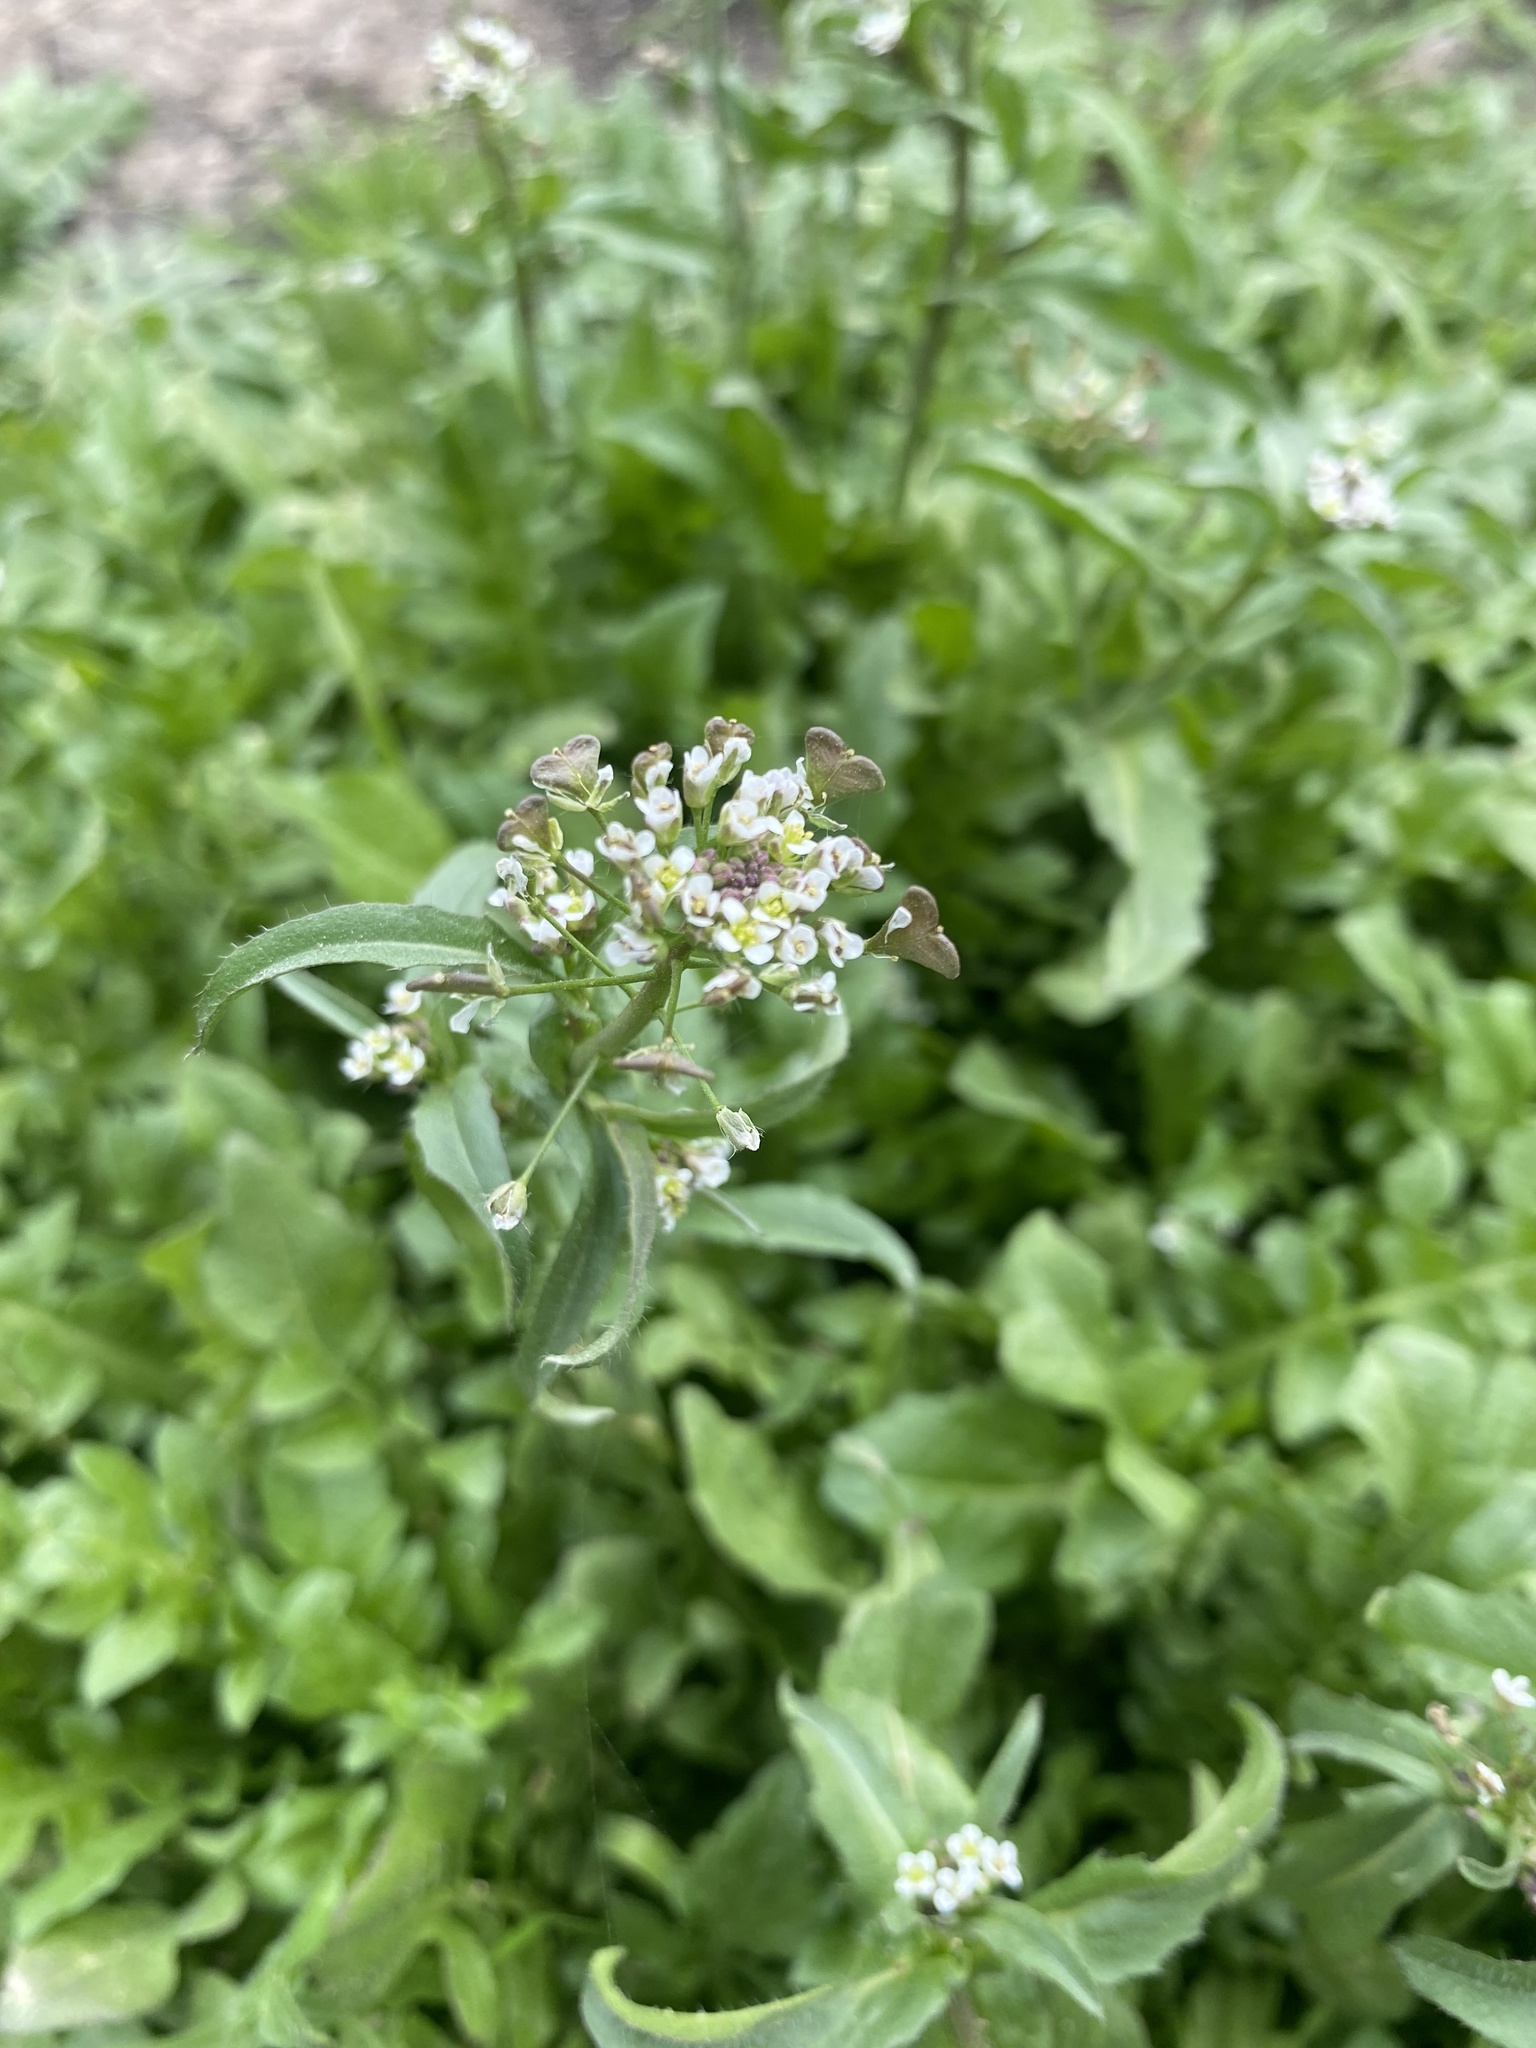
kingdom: Plantae
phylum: Tracheophyta
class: Magnoliopsida
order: Brassicales
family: Brassicaceae
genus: Capsella
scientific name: Capsella bursa-pastoris
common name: Shepherd's purse
